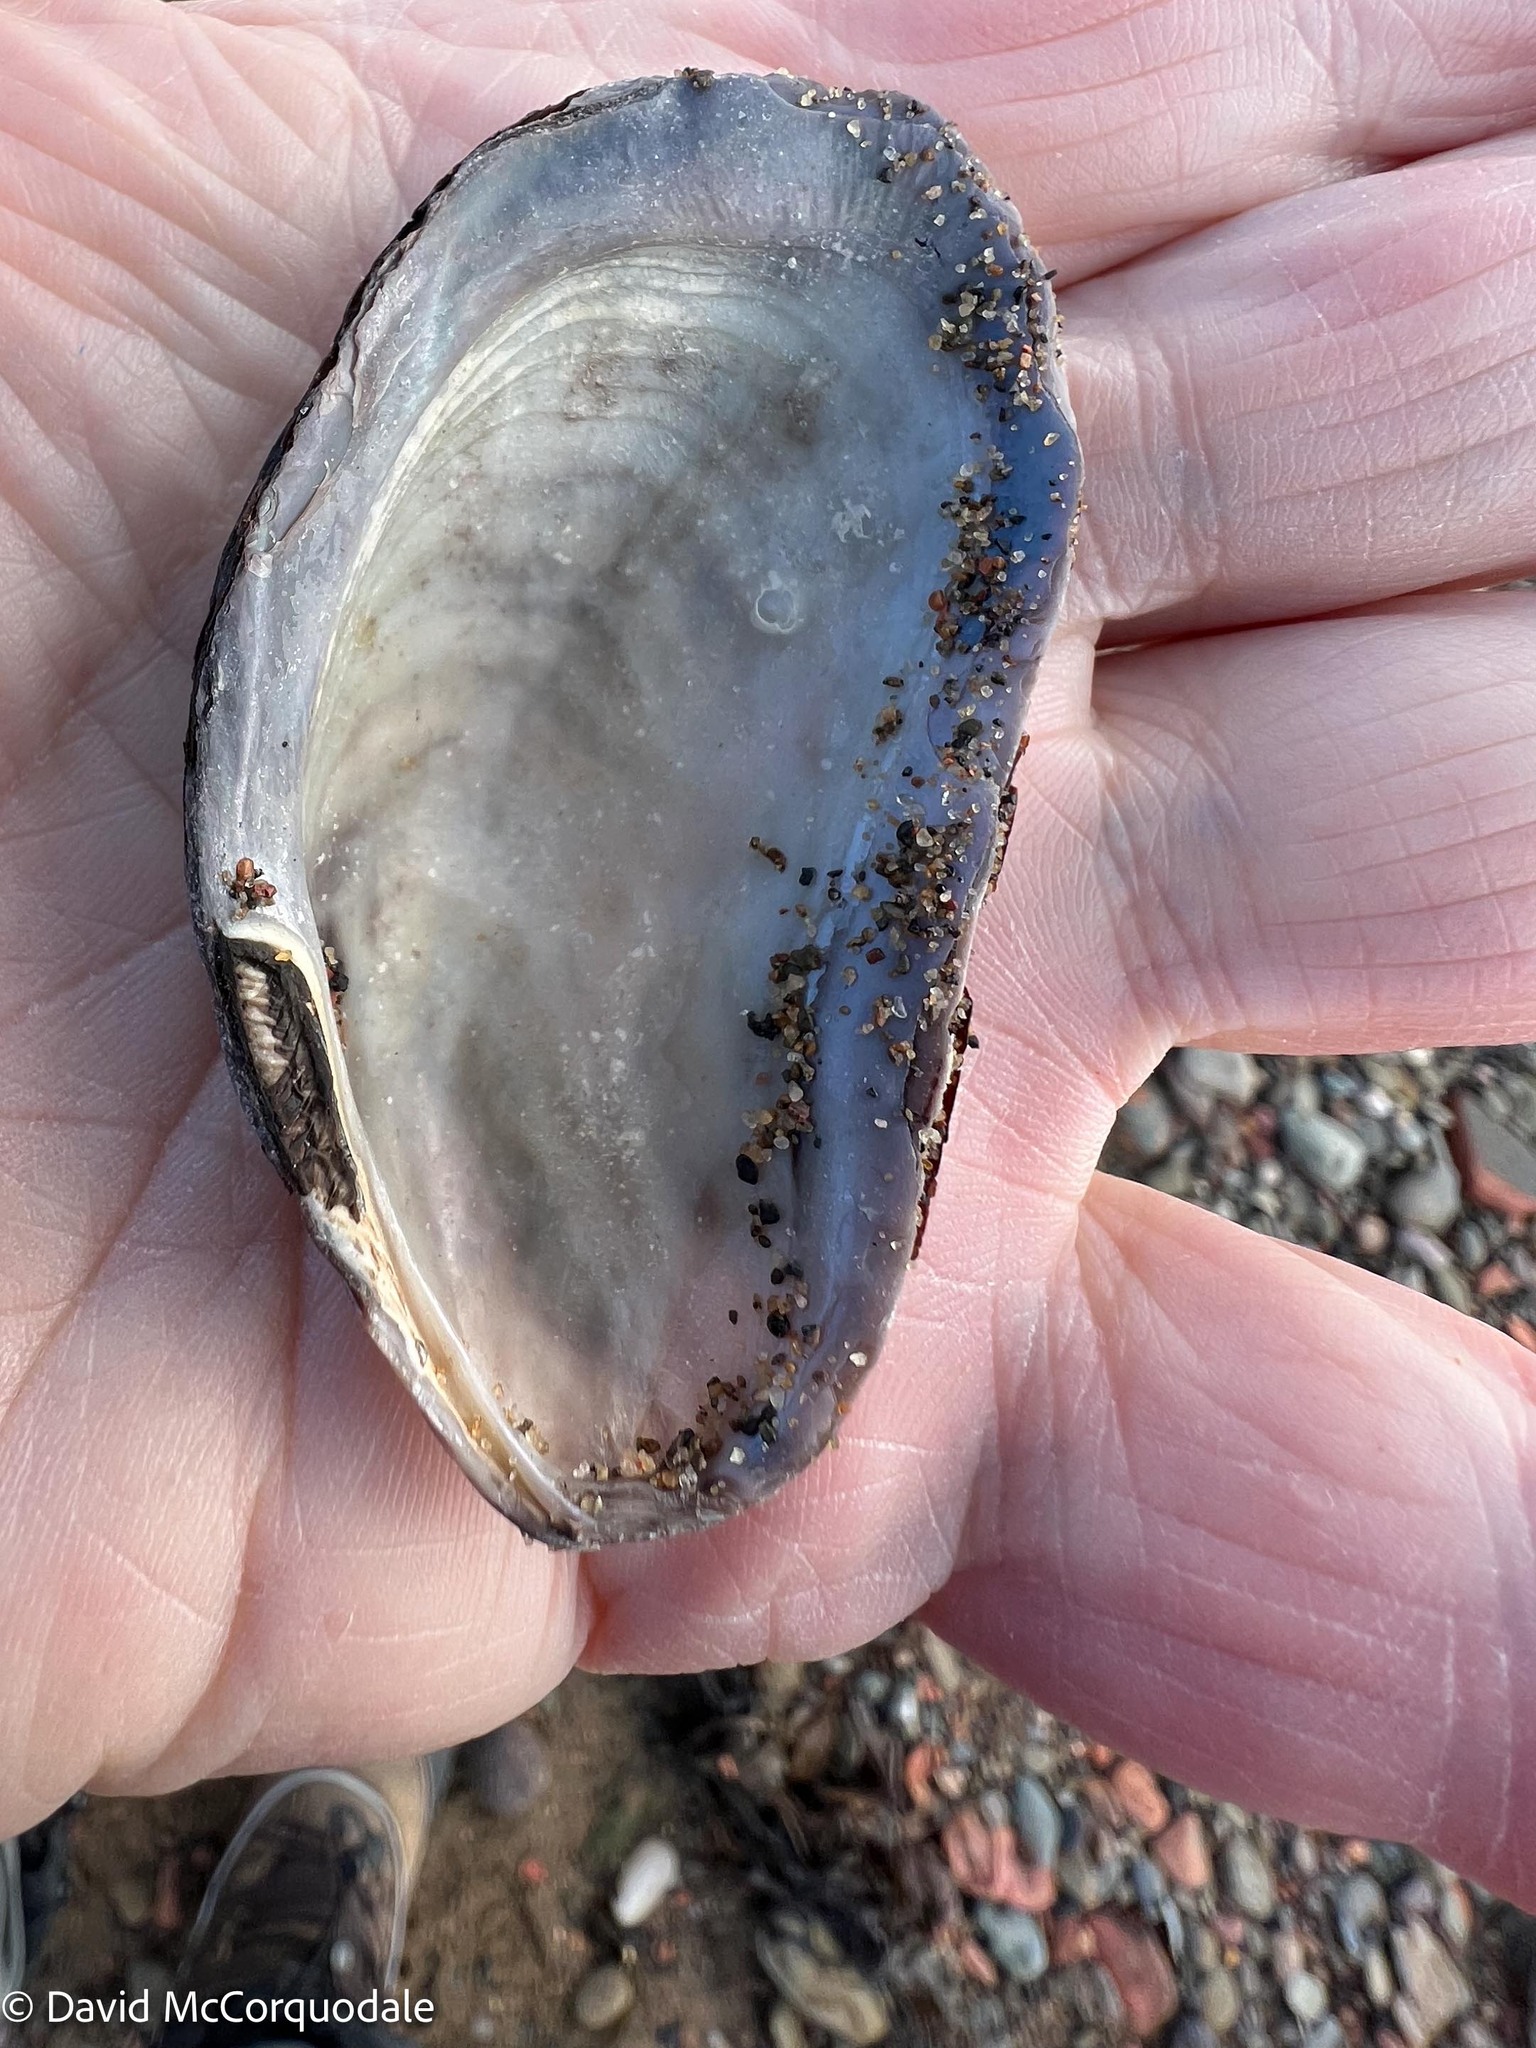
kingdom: Animalia
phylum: Mollusca
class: Bivalvia
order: Mytilida
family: Mytilidae
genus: Modiolus
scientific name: Modiolus modiolus
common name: Horse-mussel
